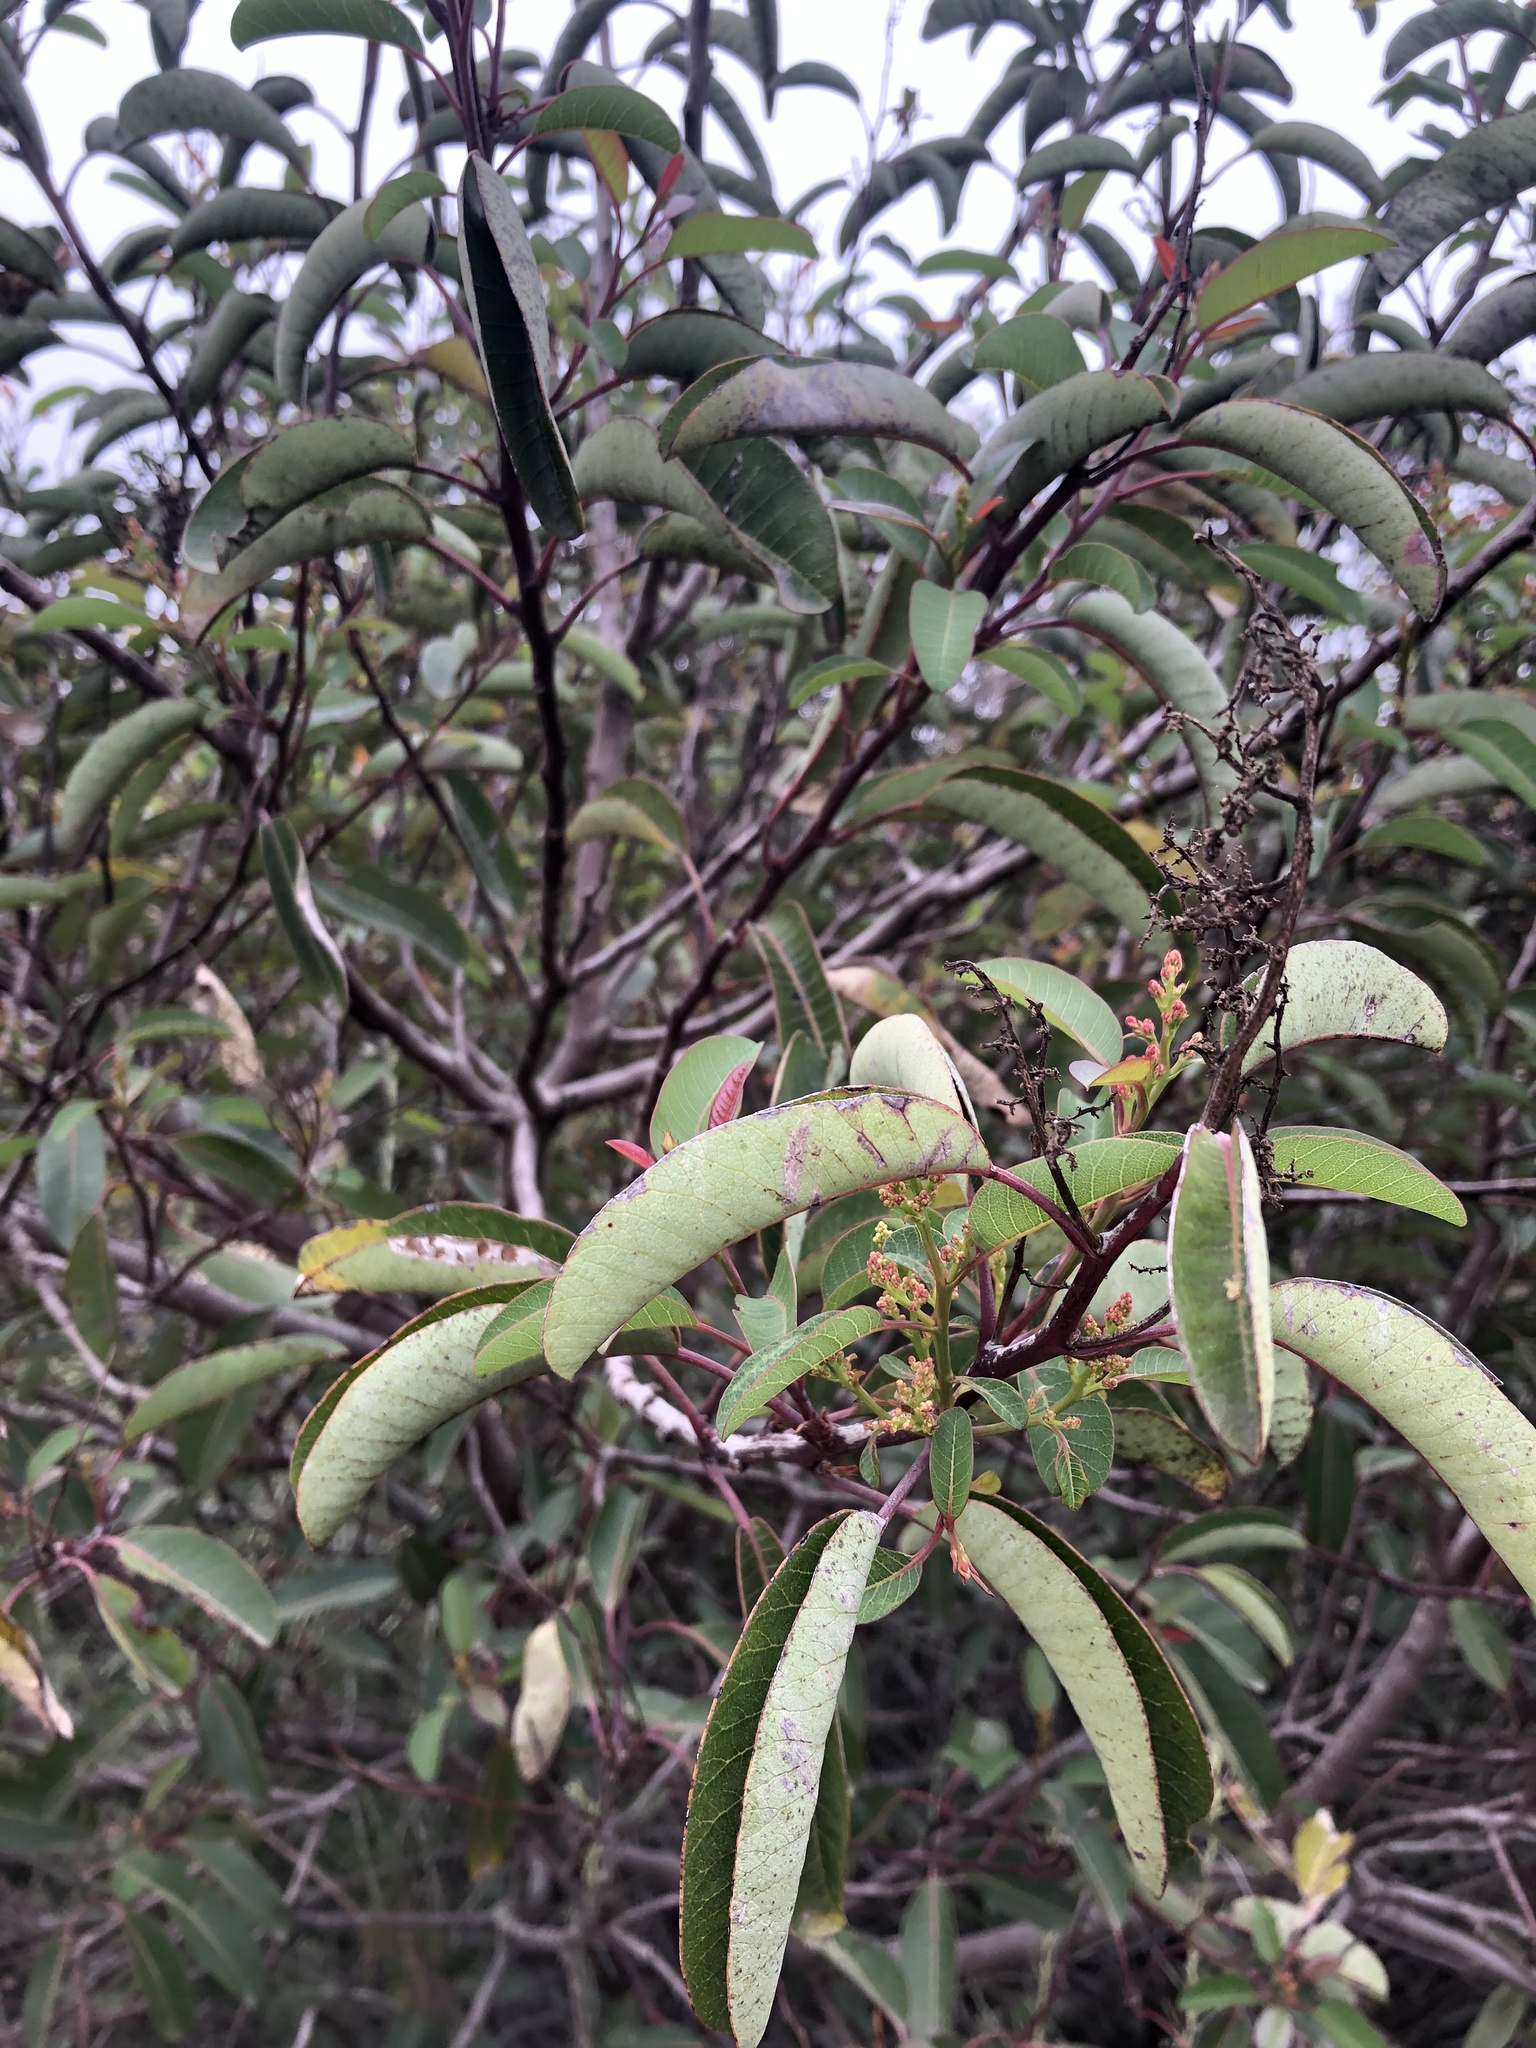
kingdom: Plantae
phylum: Tracheophyta
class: Magnoliopsida
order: Sapindales
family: Anacardiaceae
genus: Malosma
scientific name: Malosma laurina
